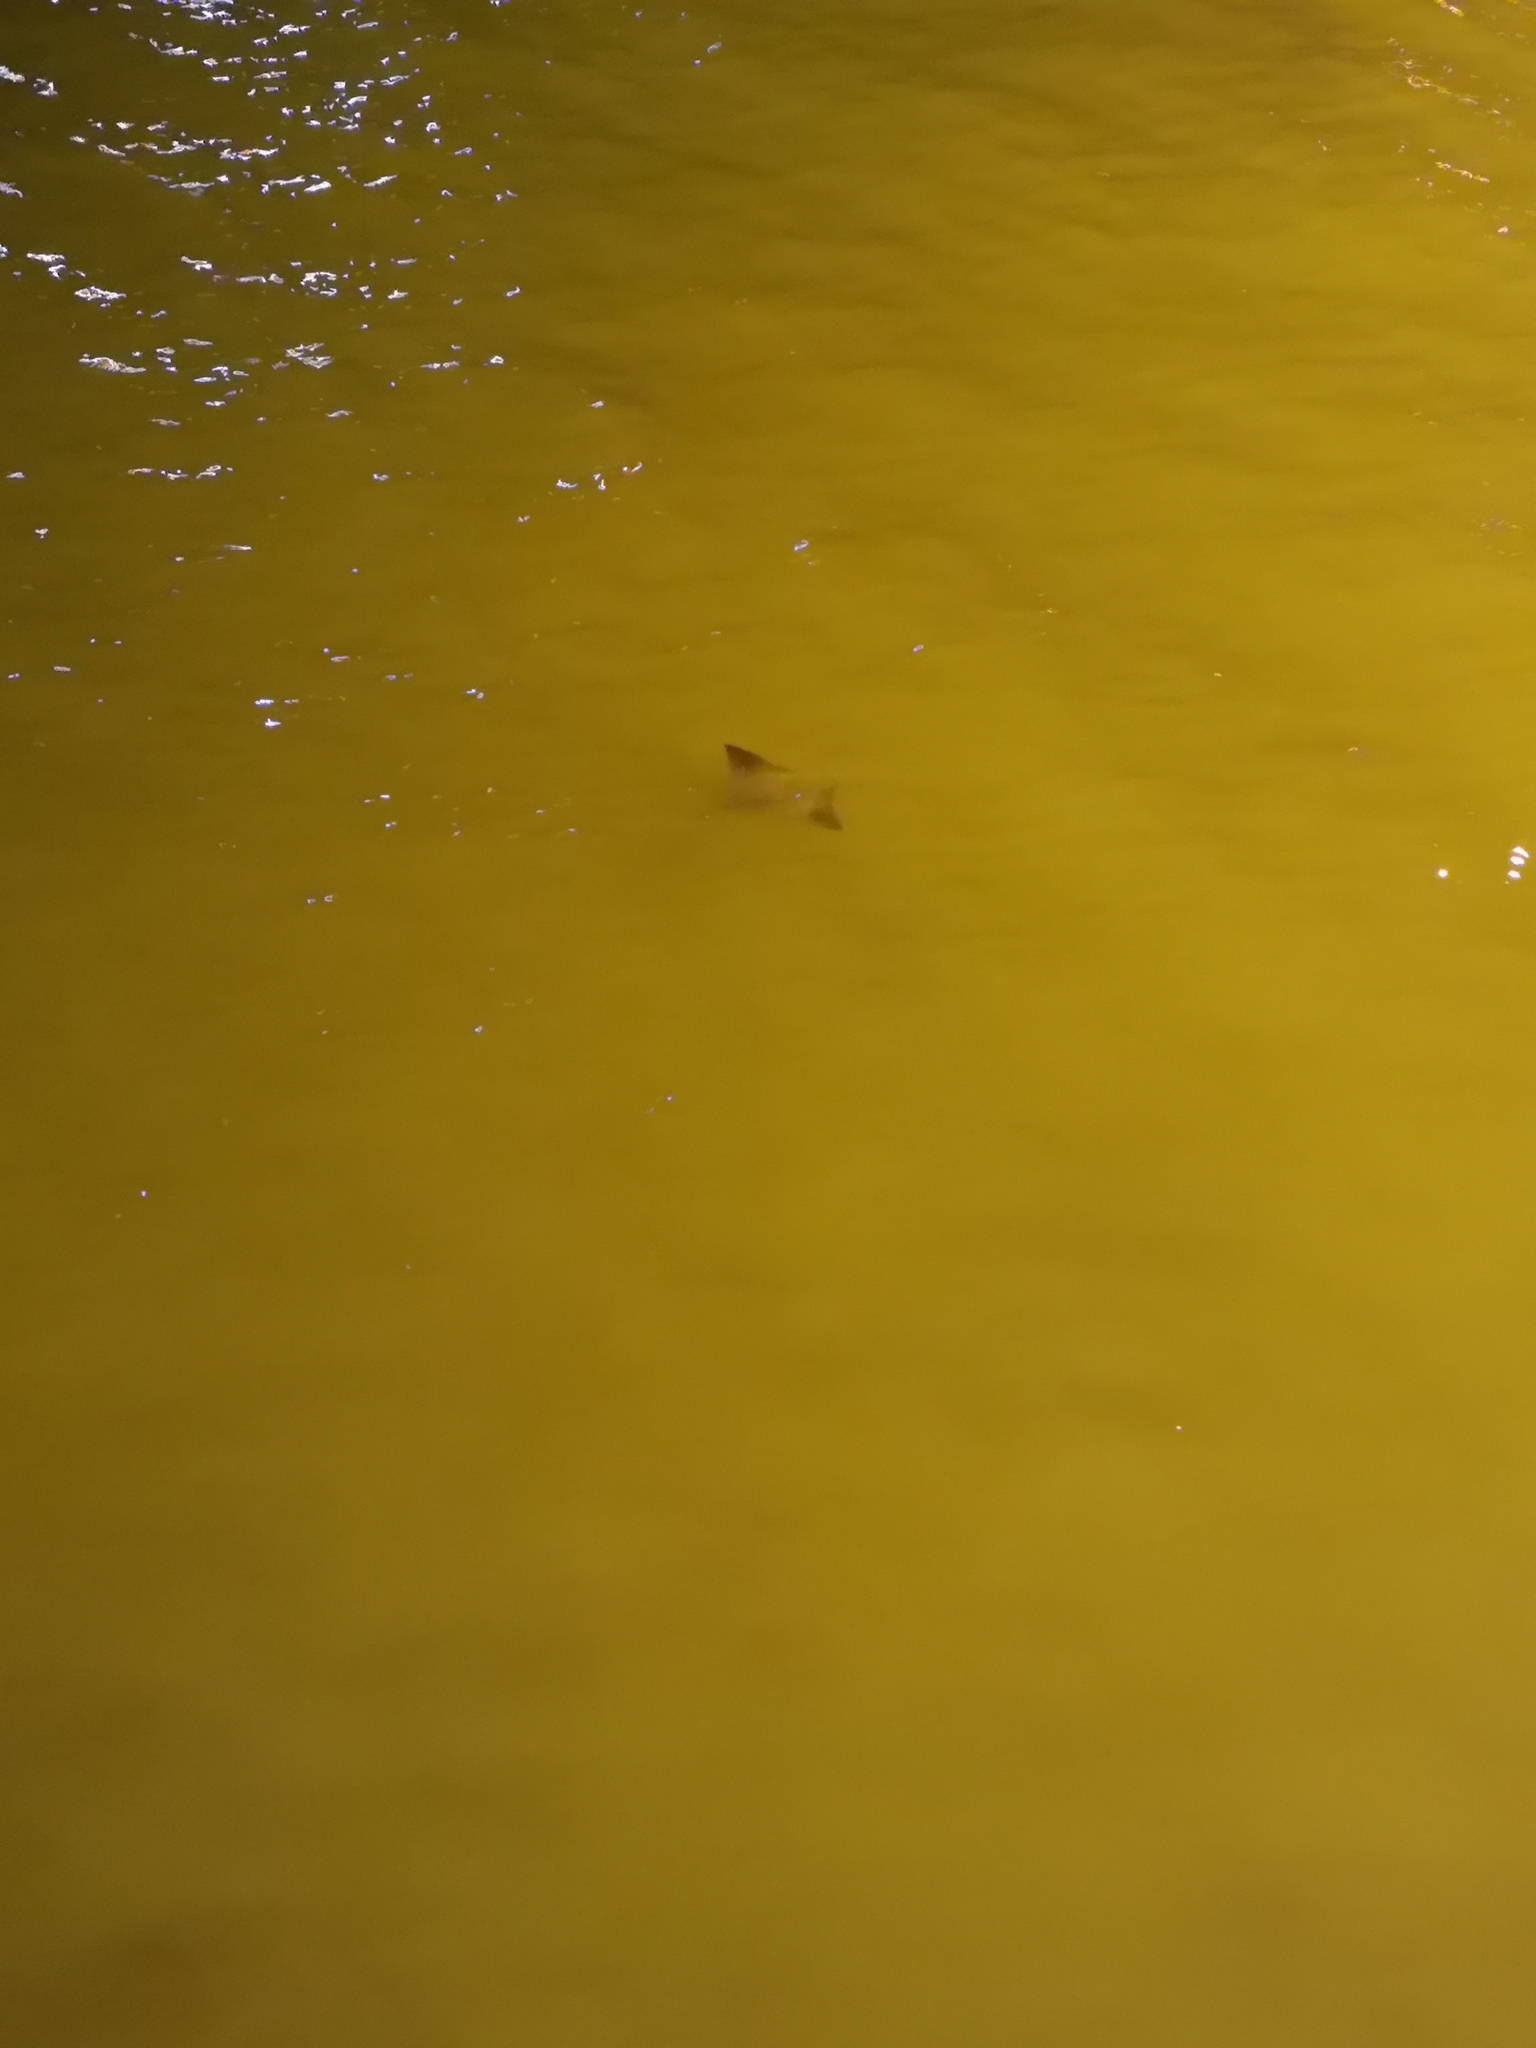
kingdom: Animalia
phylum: Chordata
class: Elasmobranchii
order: Myliobatiformes
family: Myliobatidae
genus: Rhinoptera
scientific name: Rhinoptera steindachneri
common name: Golden cownose ray
